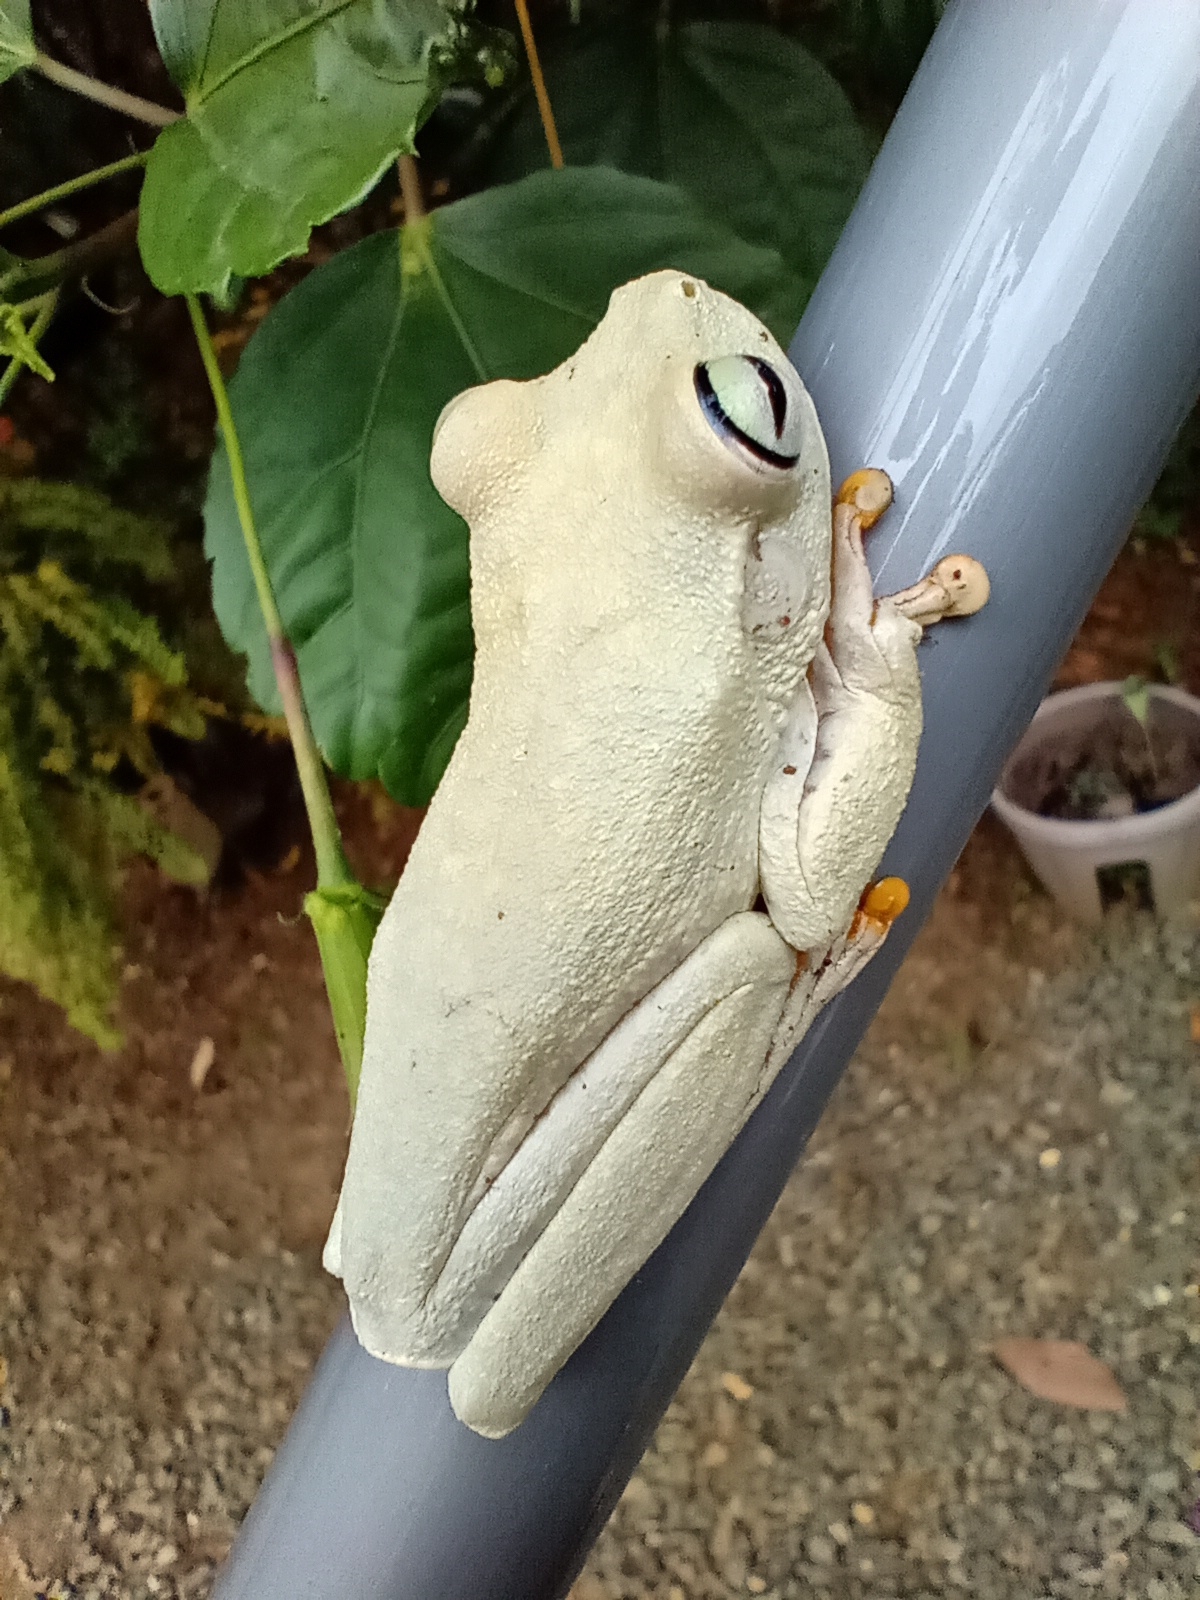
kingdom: Animalia
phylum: Chordata
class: Amphibia
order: Anura
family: Hylidae
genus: Boana
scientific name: Boana platanera
